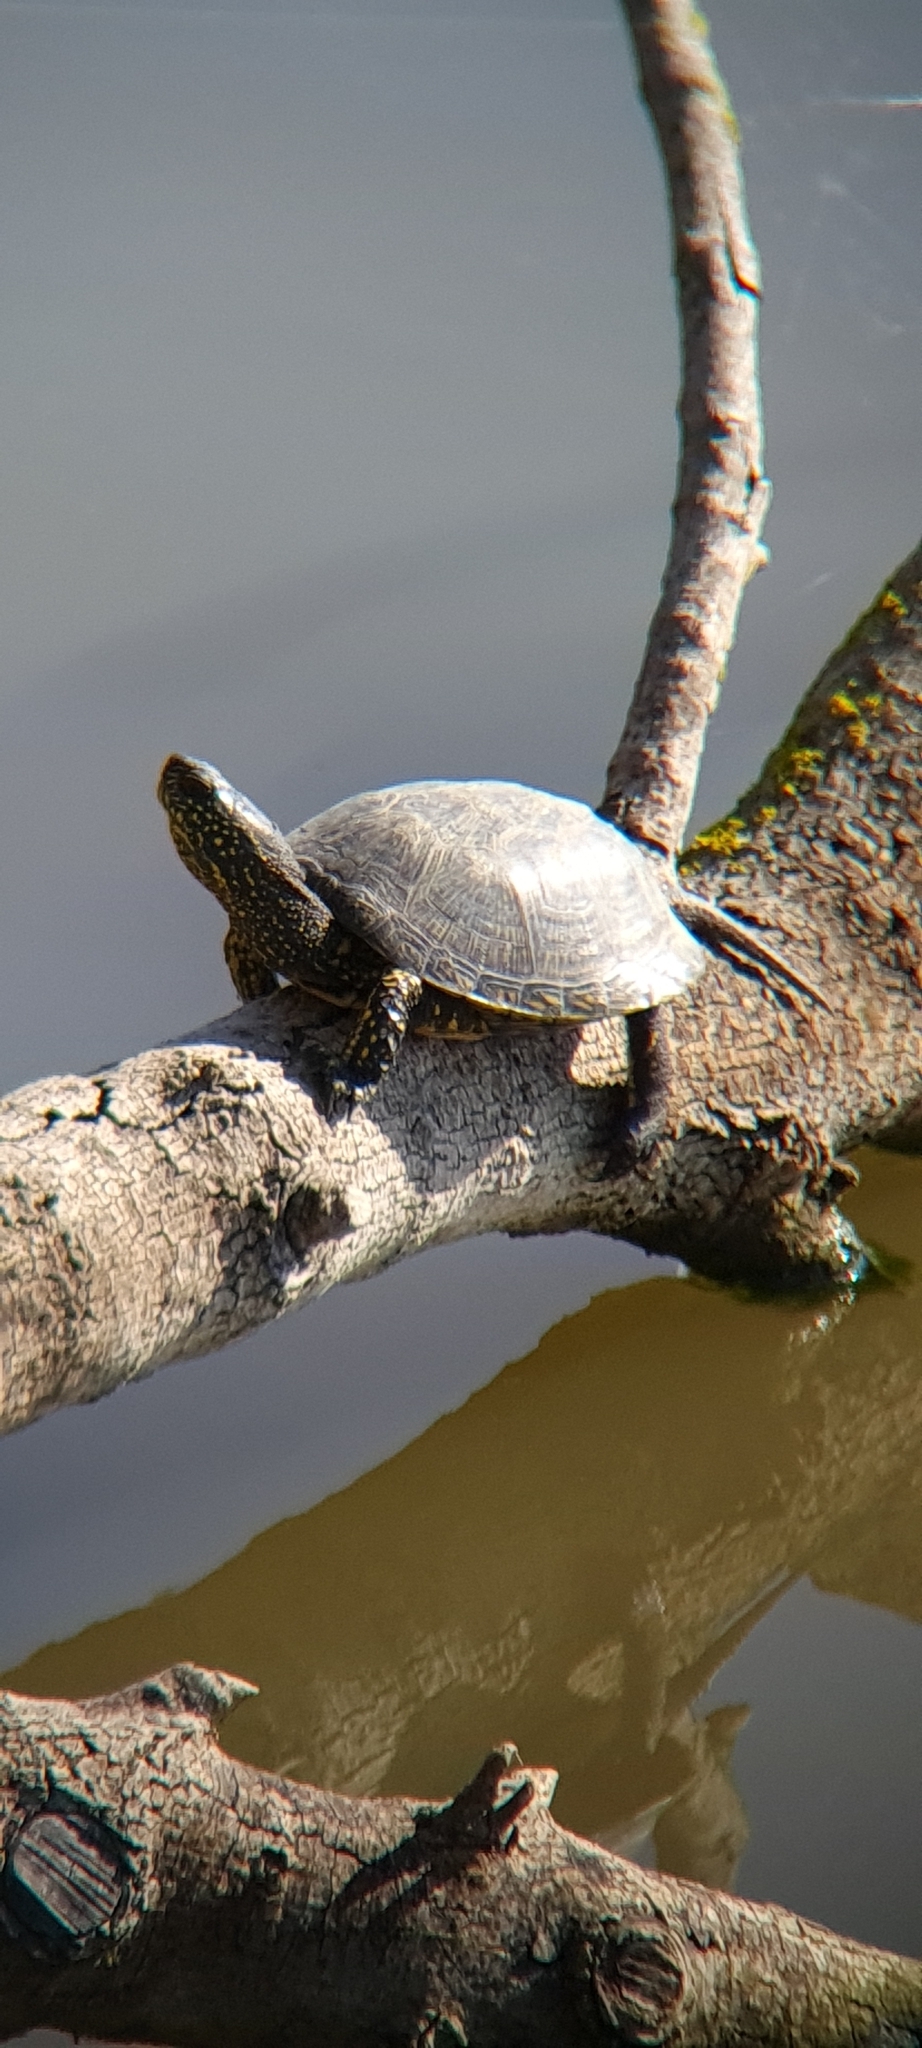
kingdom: Animalia
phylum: Chordata
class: Testudines
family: Emydidae
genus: Emys
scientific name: Emys orbicularis
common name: European pond turtle
